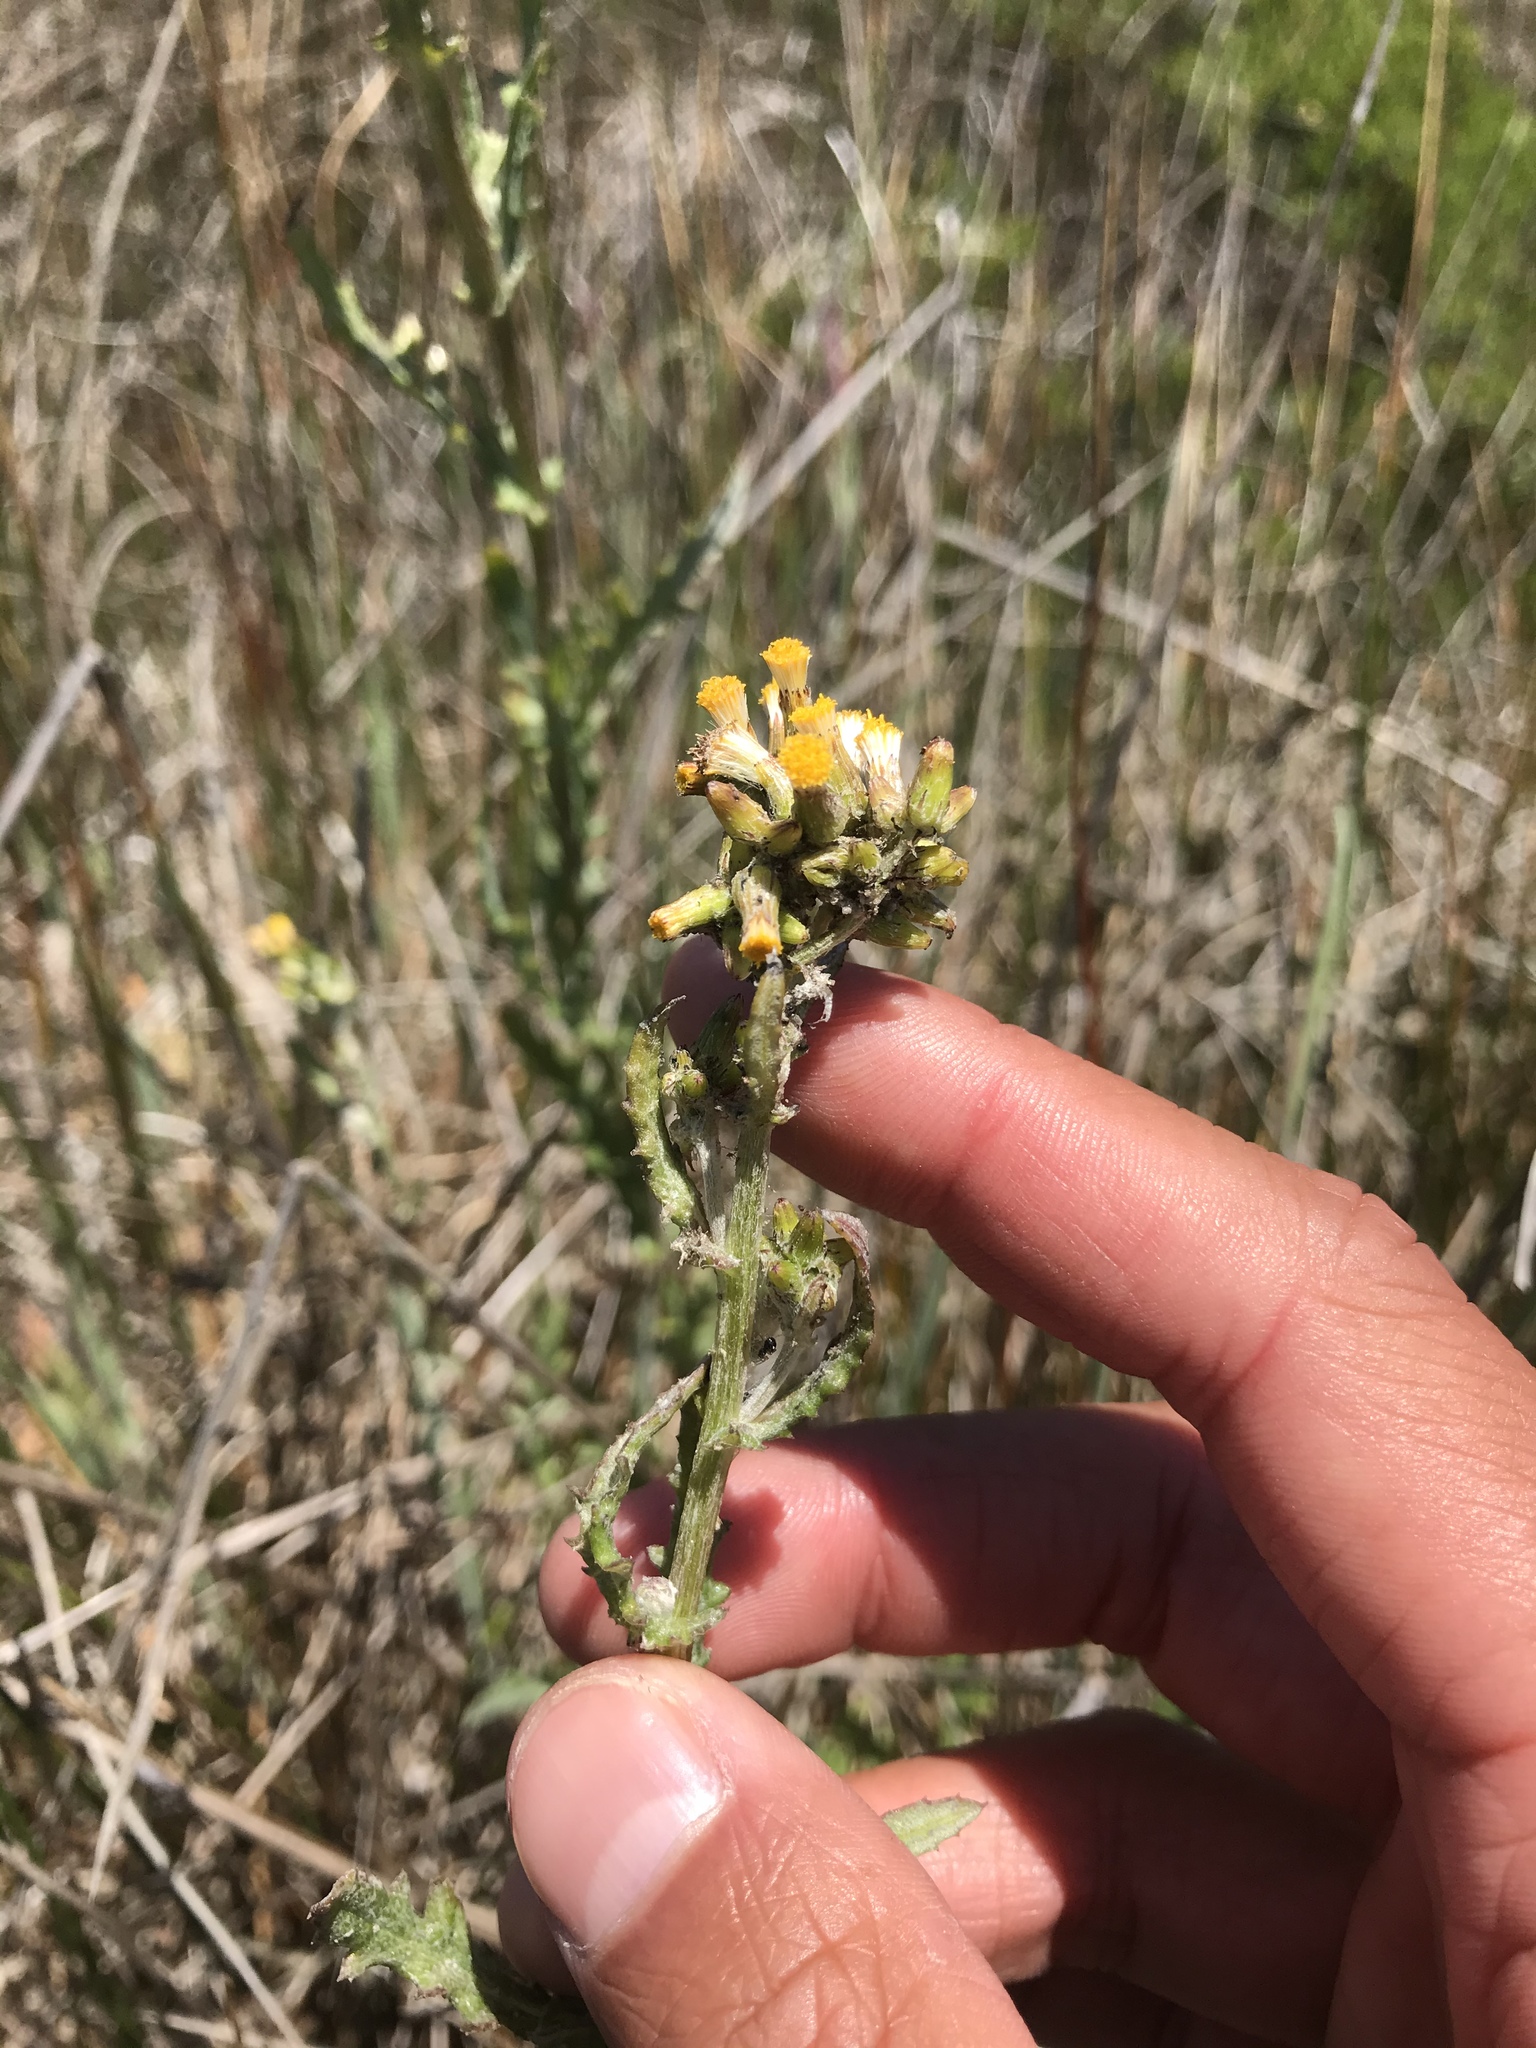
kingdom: Plantae
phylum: Tracheophyta
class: Magnoliopsida
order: Asterales
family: Asteraceae
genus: Senecio
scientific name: Senecio glomeratus
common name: Cutleaf burnweed
